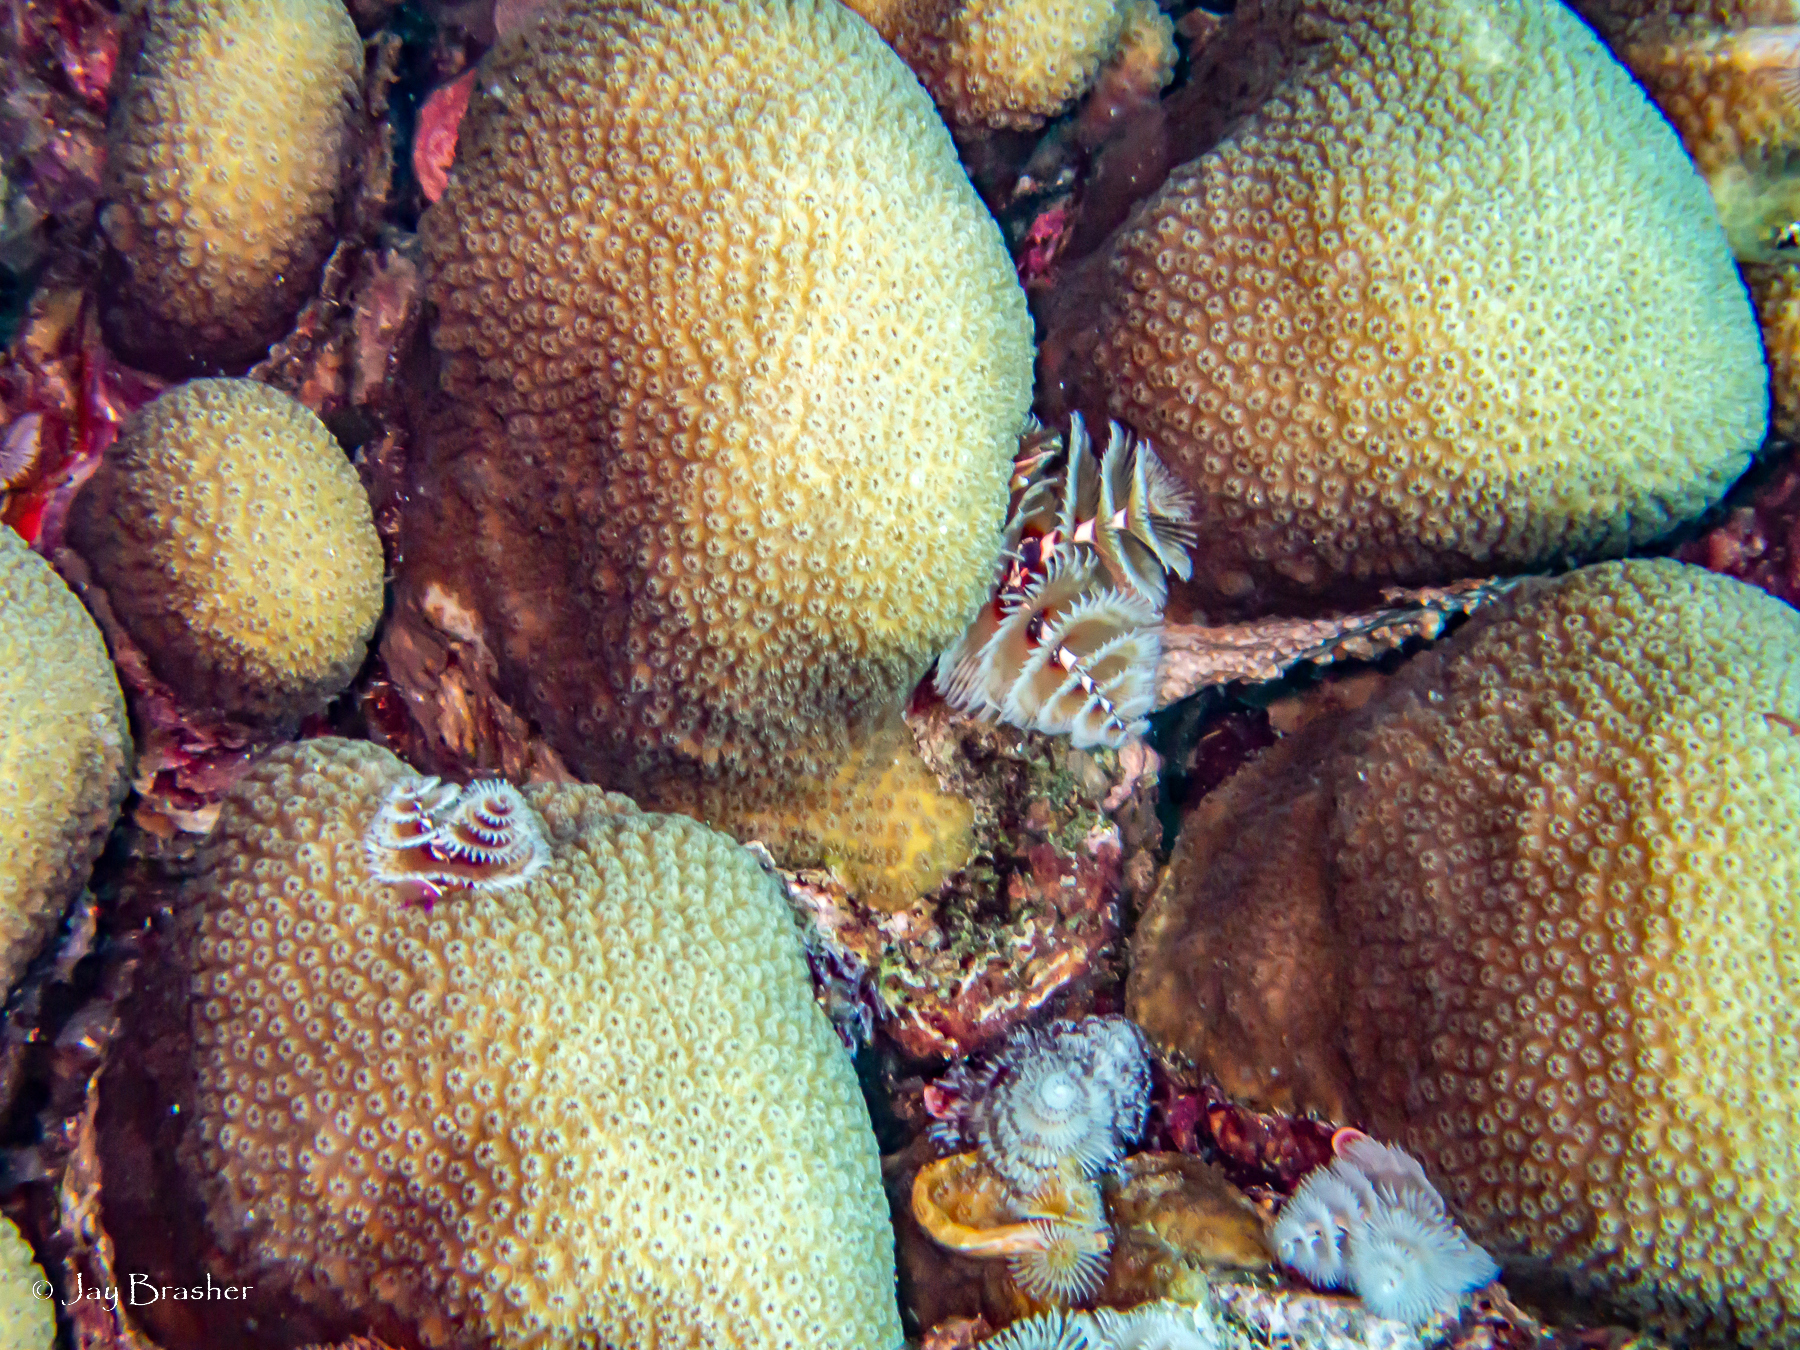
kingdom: Animalia
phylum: Annelida
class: Polychaeta
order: Sabellida
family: Serpulidae
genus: Spirobranchus
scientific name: Spirobranchus giganteus
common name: Christmas tree worm
